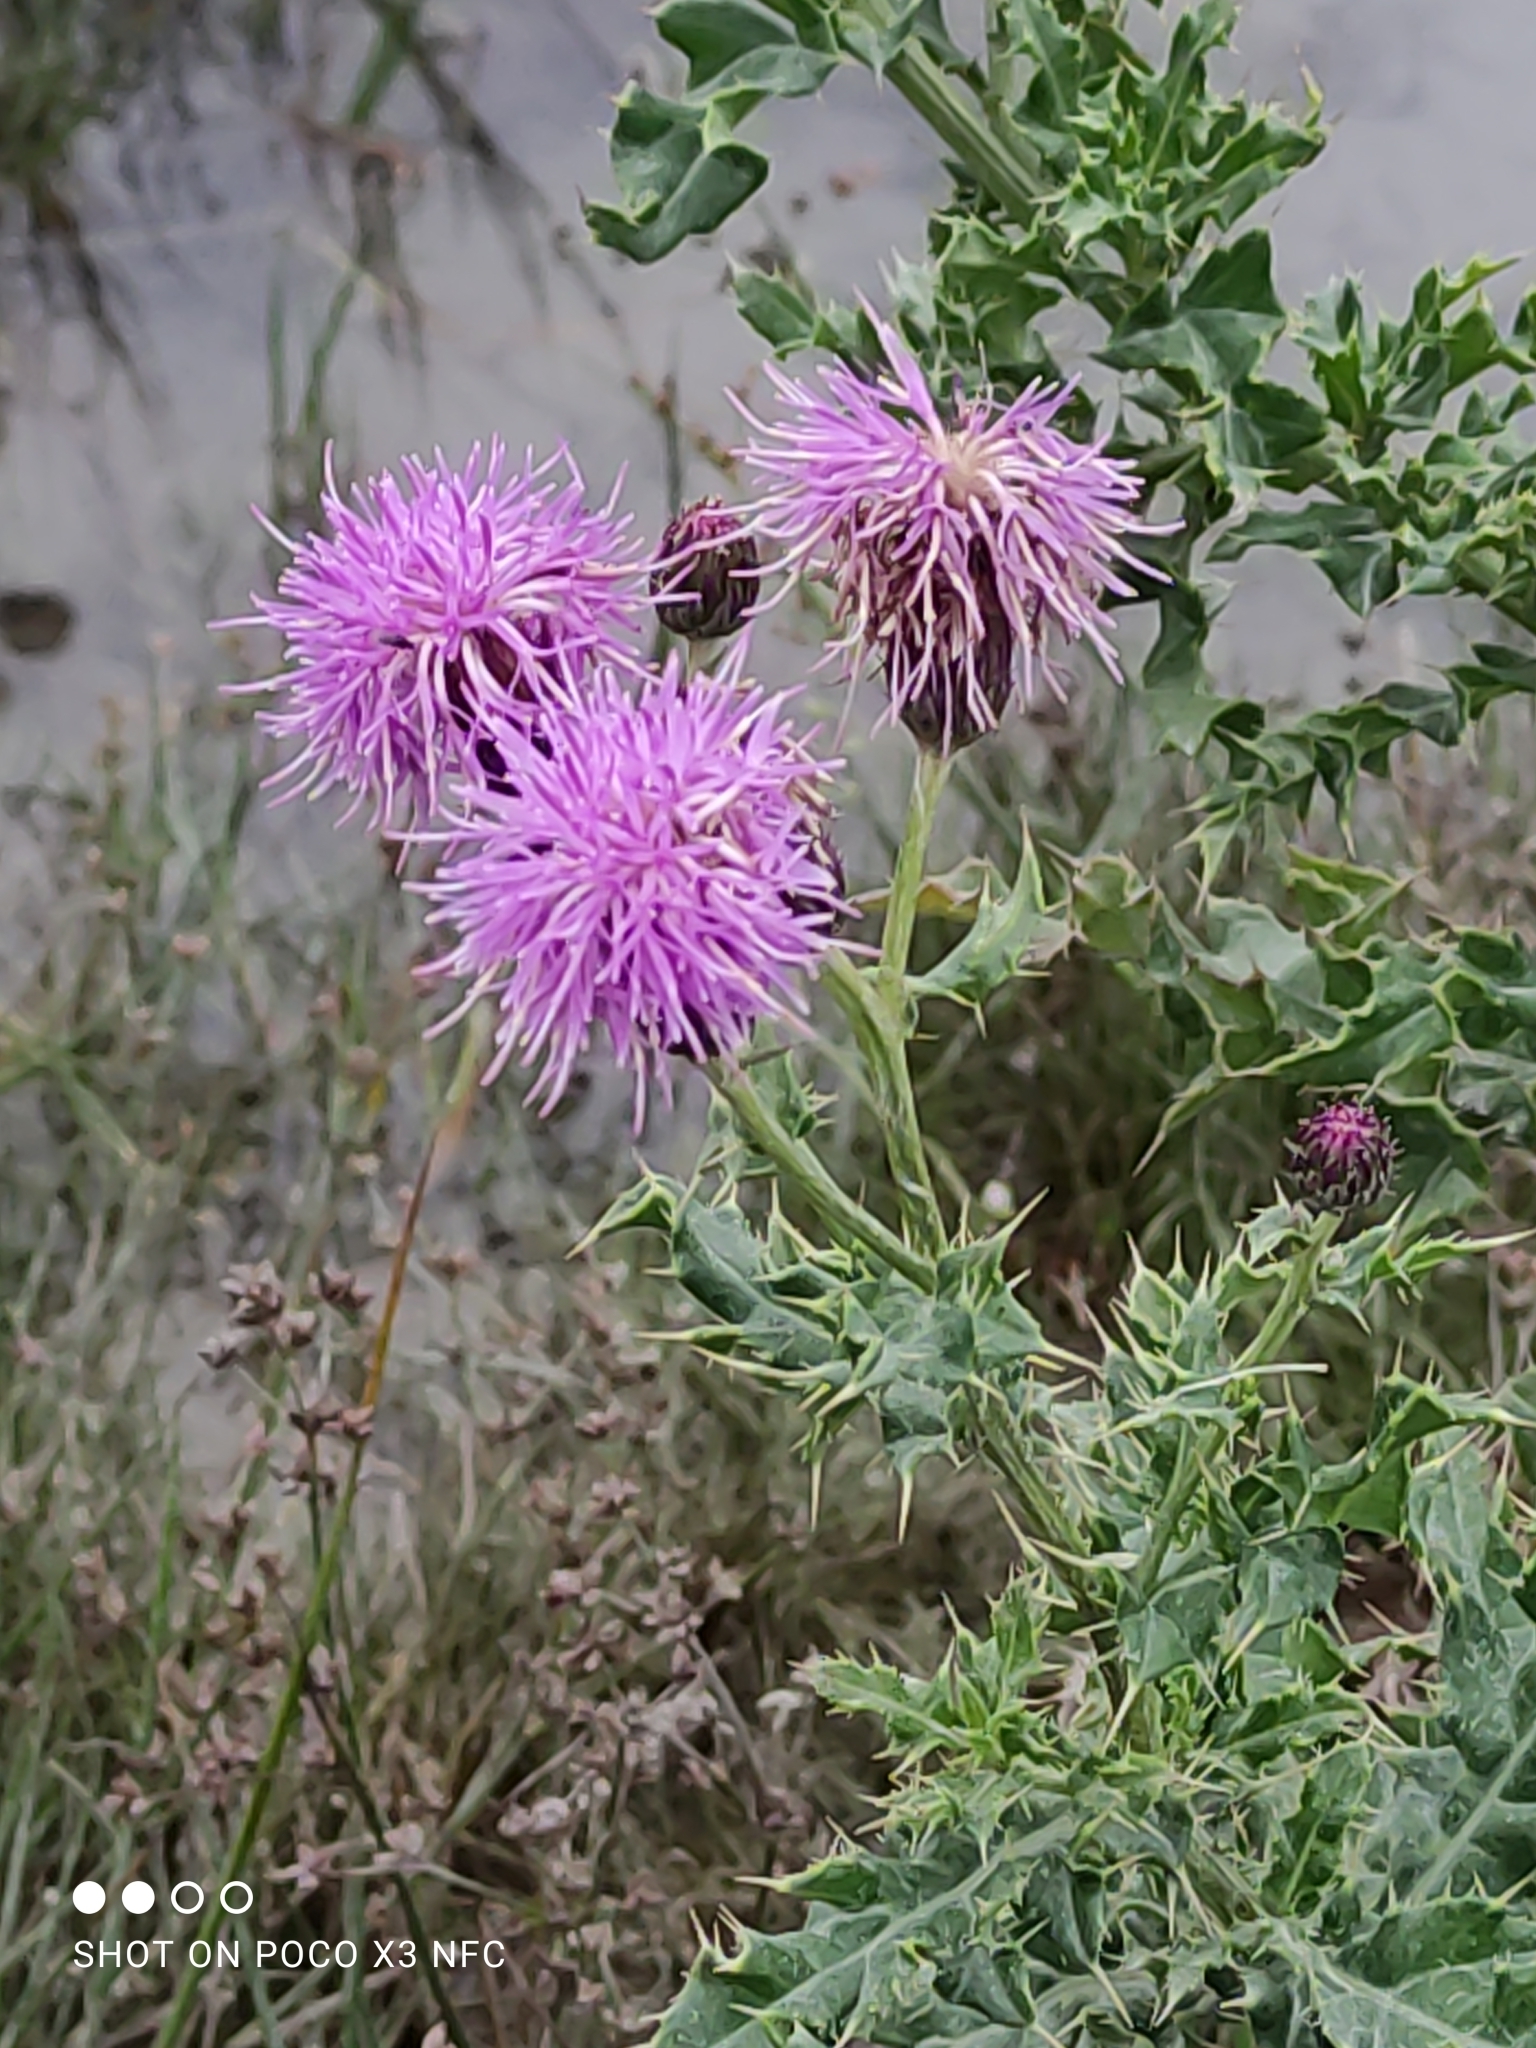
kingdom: Plantae
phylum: Tracheophyta
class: Magnoliopsida
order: Asterales
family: Asteraceae
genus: Cirsium
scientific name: Cirsium arvense
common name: Creeping thistle
